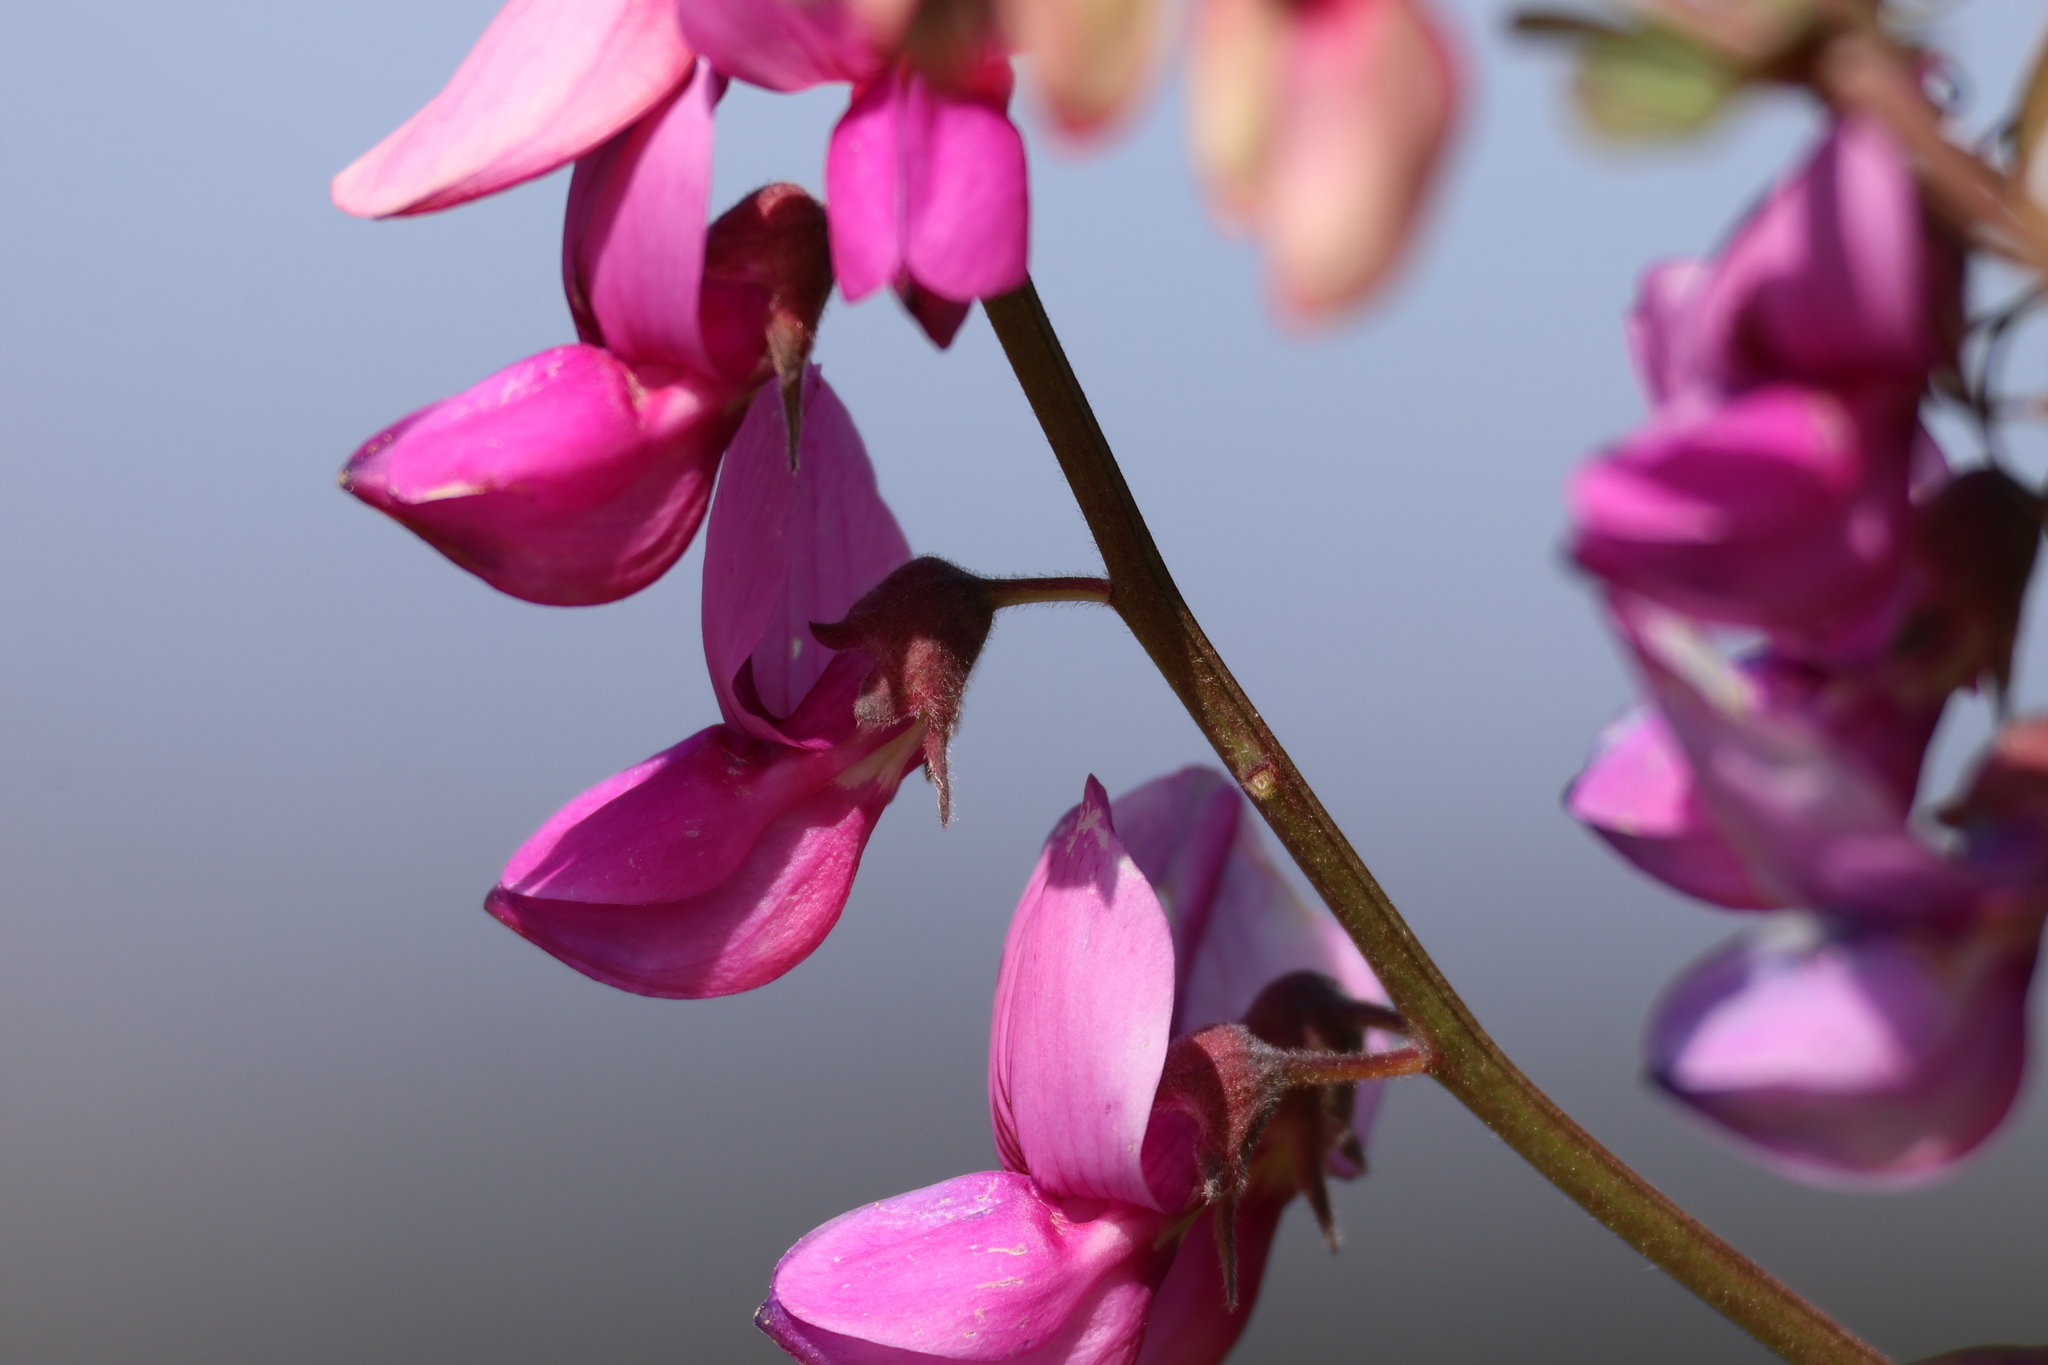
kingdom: Plantae
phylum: Tracheophyta
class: Magnoliopsida
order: Fabales
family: Fabaceae
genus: Lathyrus
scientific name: Lathyrus vestitus
